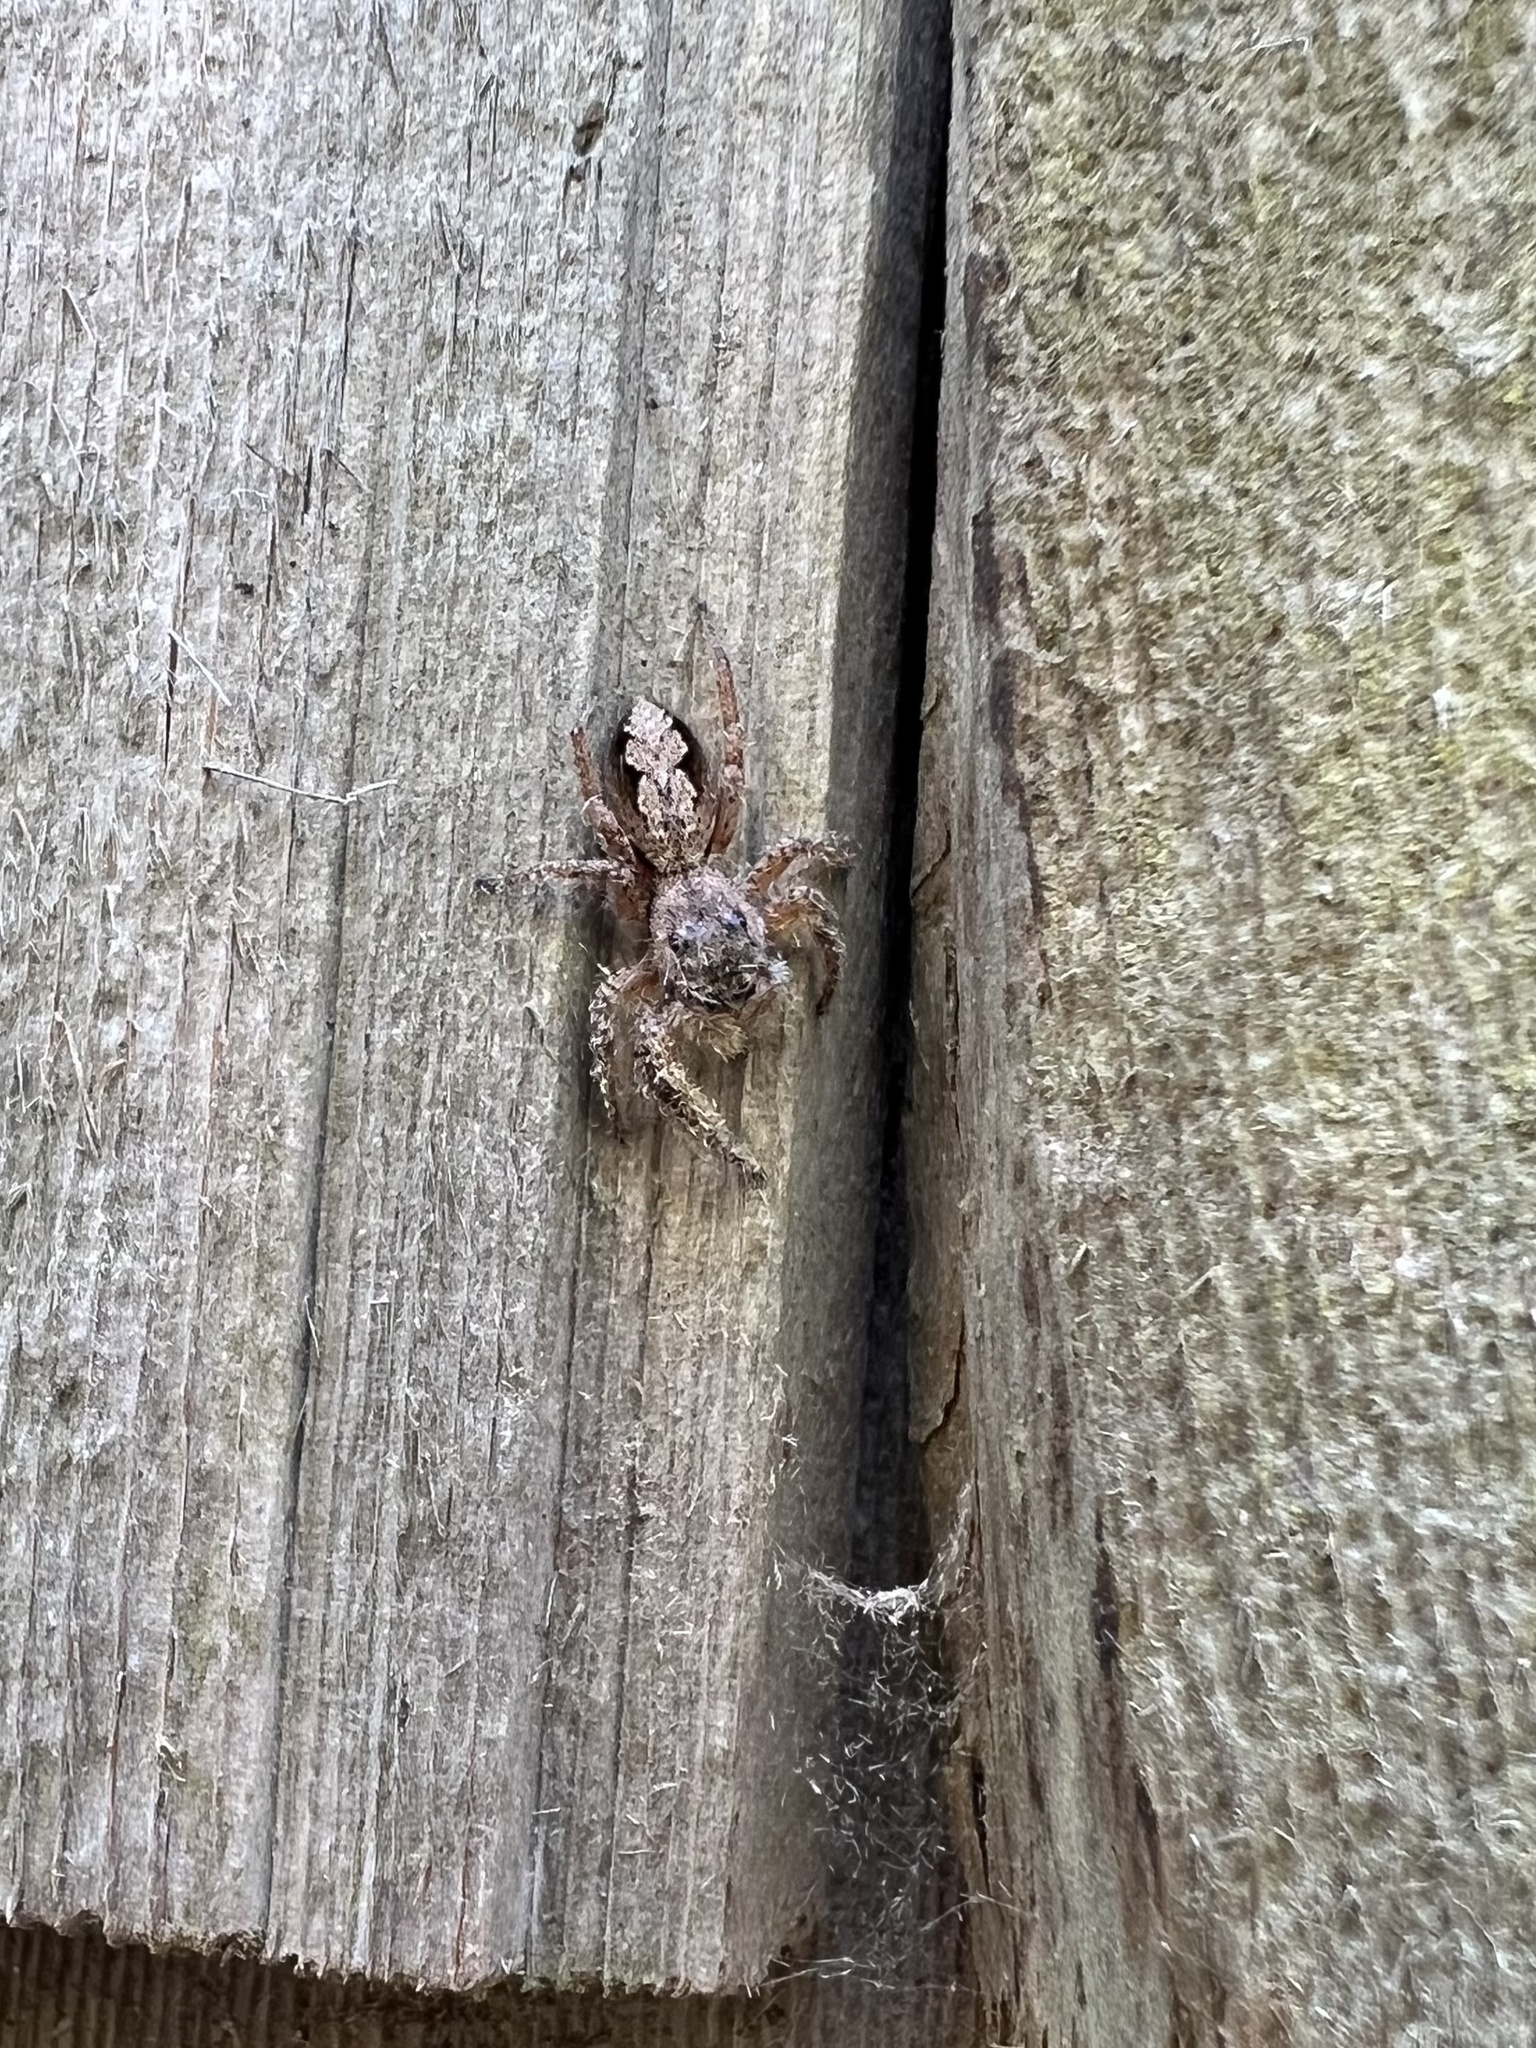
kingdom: Animalia
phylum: Arthropoda
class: Arachnida
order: Araneae
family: Salticidae
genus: Platycryptus
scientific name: Platycryptus undatus
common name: Tan jumping spider
